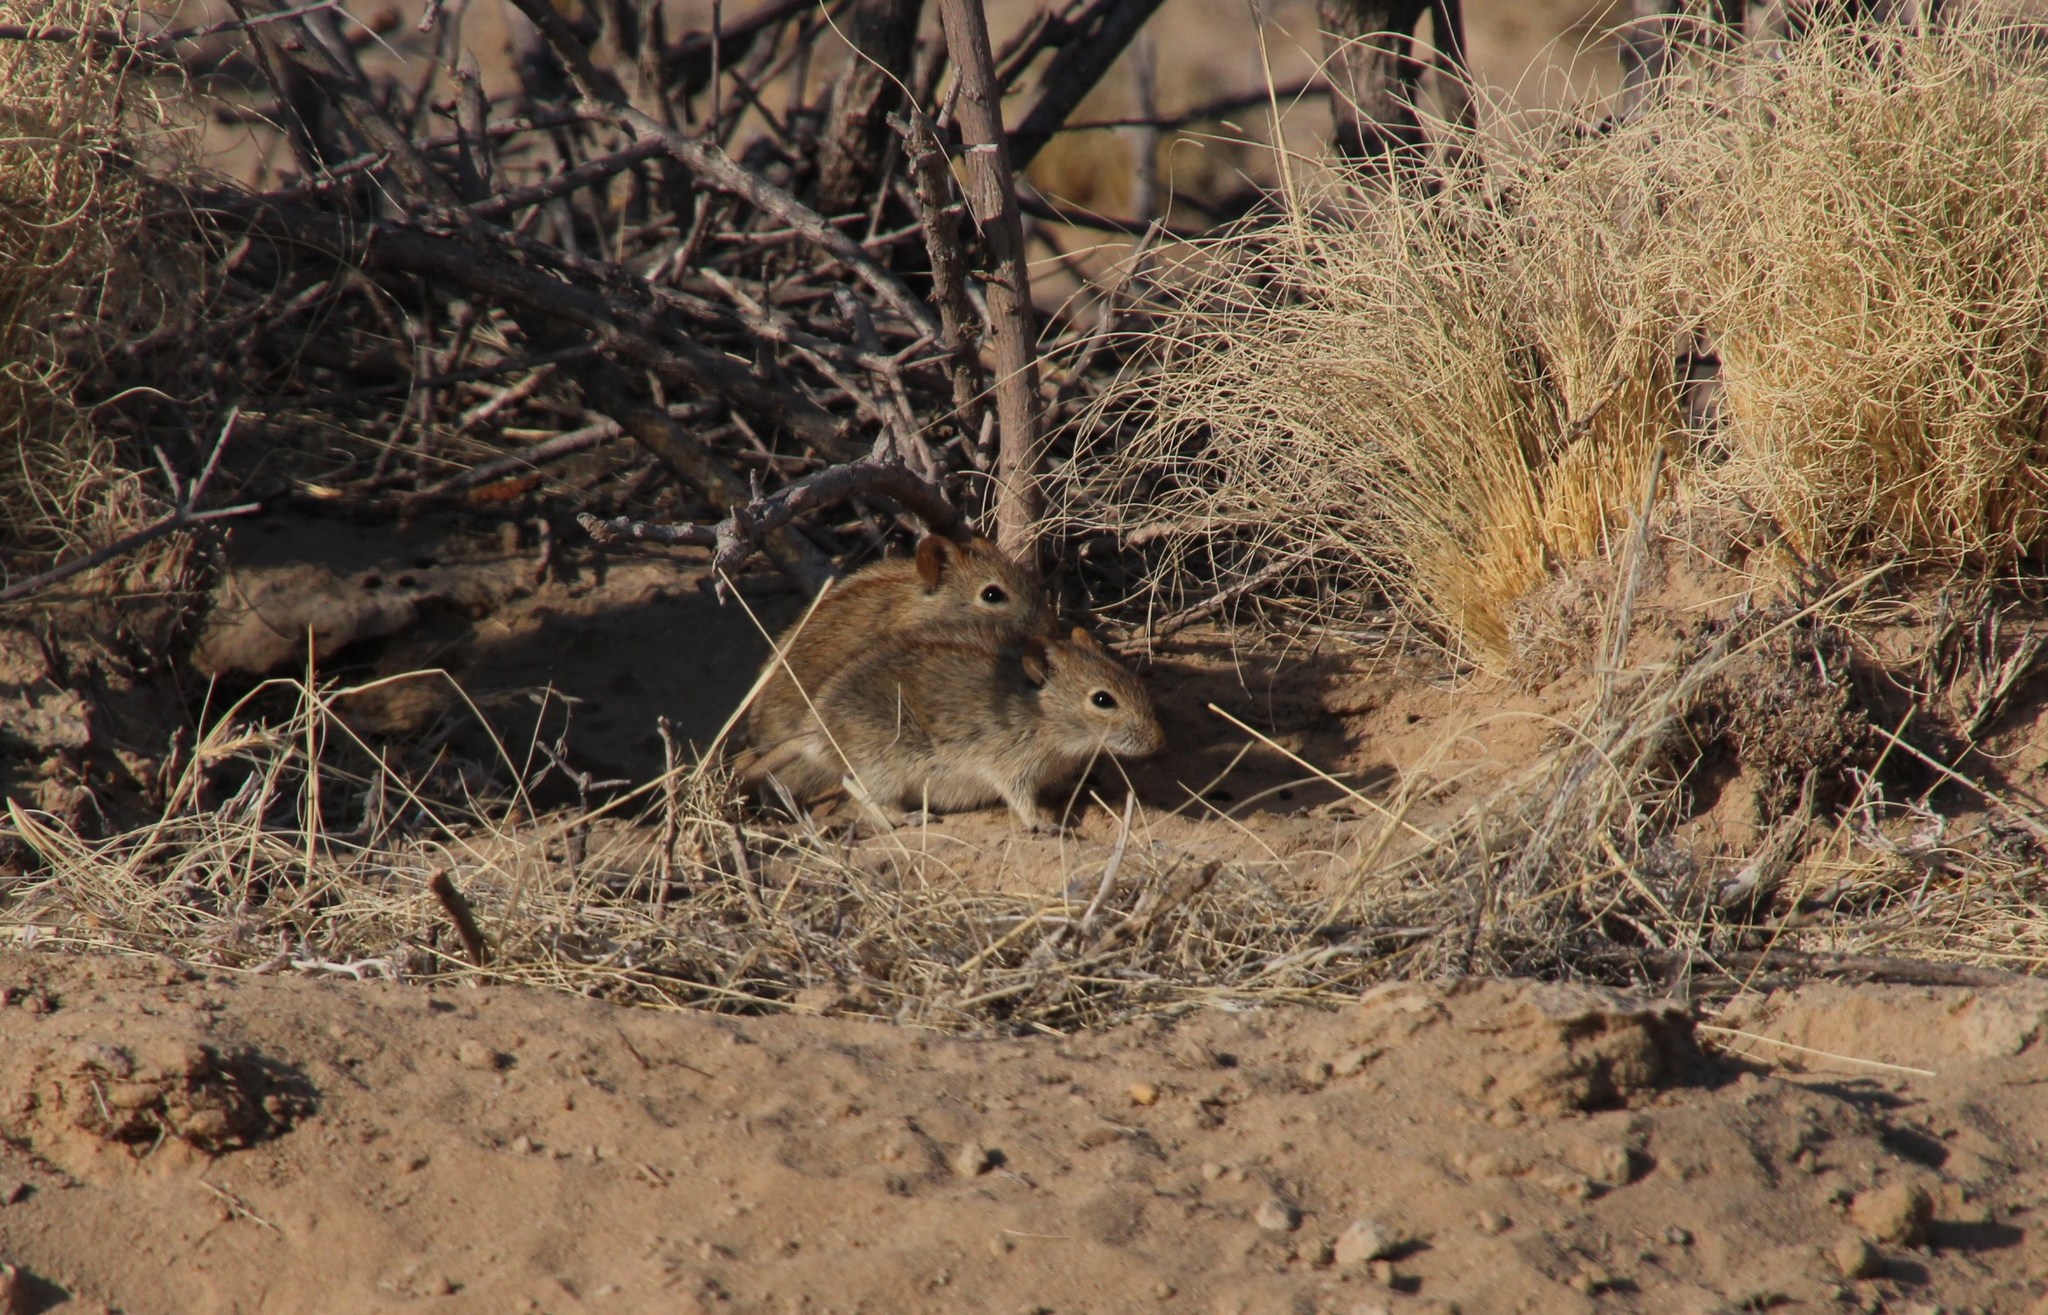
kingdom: Animalia
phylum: Chordata
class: Mammalia
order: Rodentia
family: Muridae
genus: Rhabdomys
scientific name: Rhabdomys pumilio
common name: Xeric four-striped grass rat
